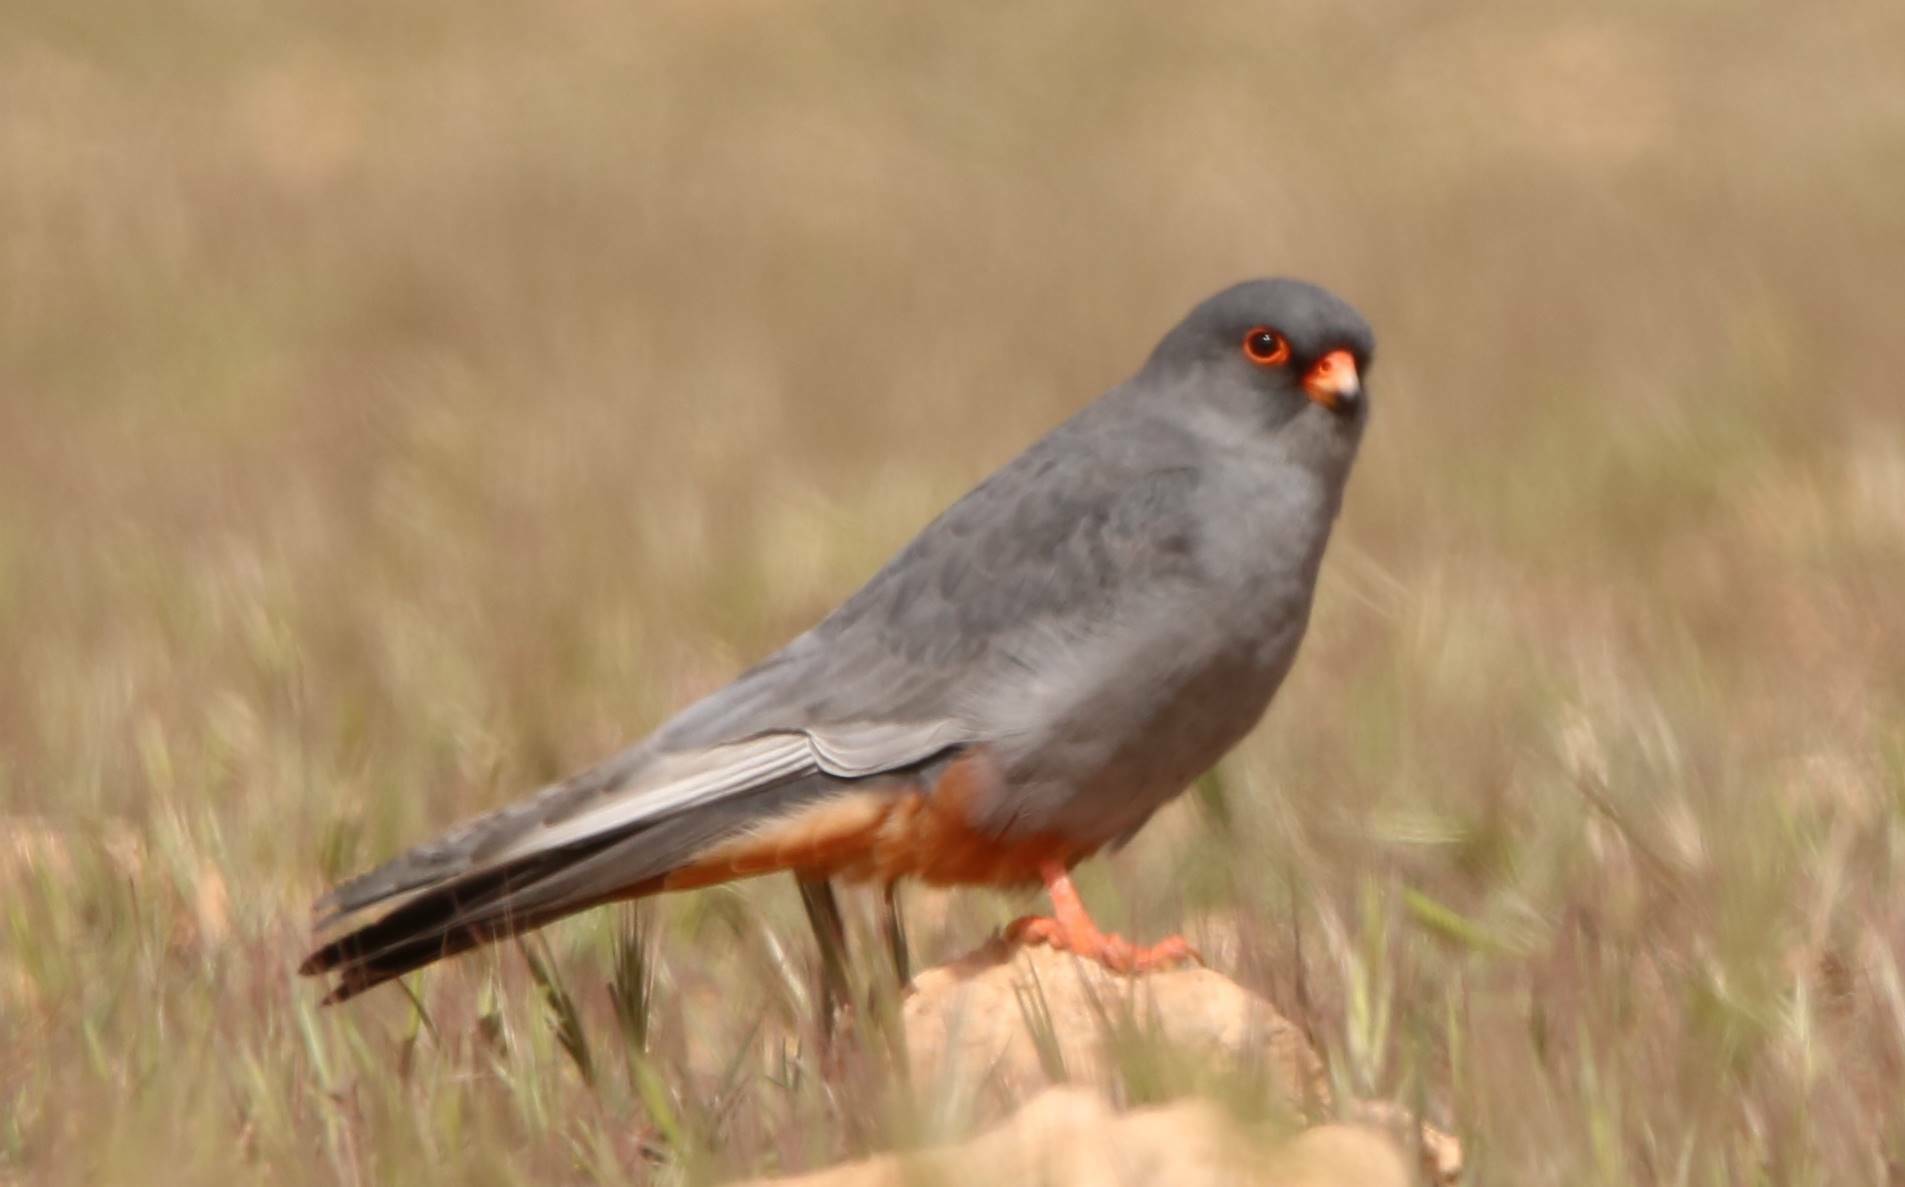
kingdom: Animalia
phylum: Chordata
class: Aves
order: Falconiformes
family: Falconidae
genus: Falco
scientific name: Falco vespertinus
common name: Red-footed falcon
